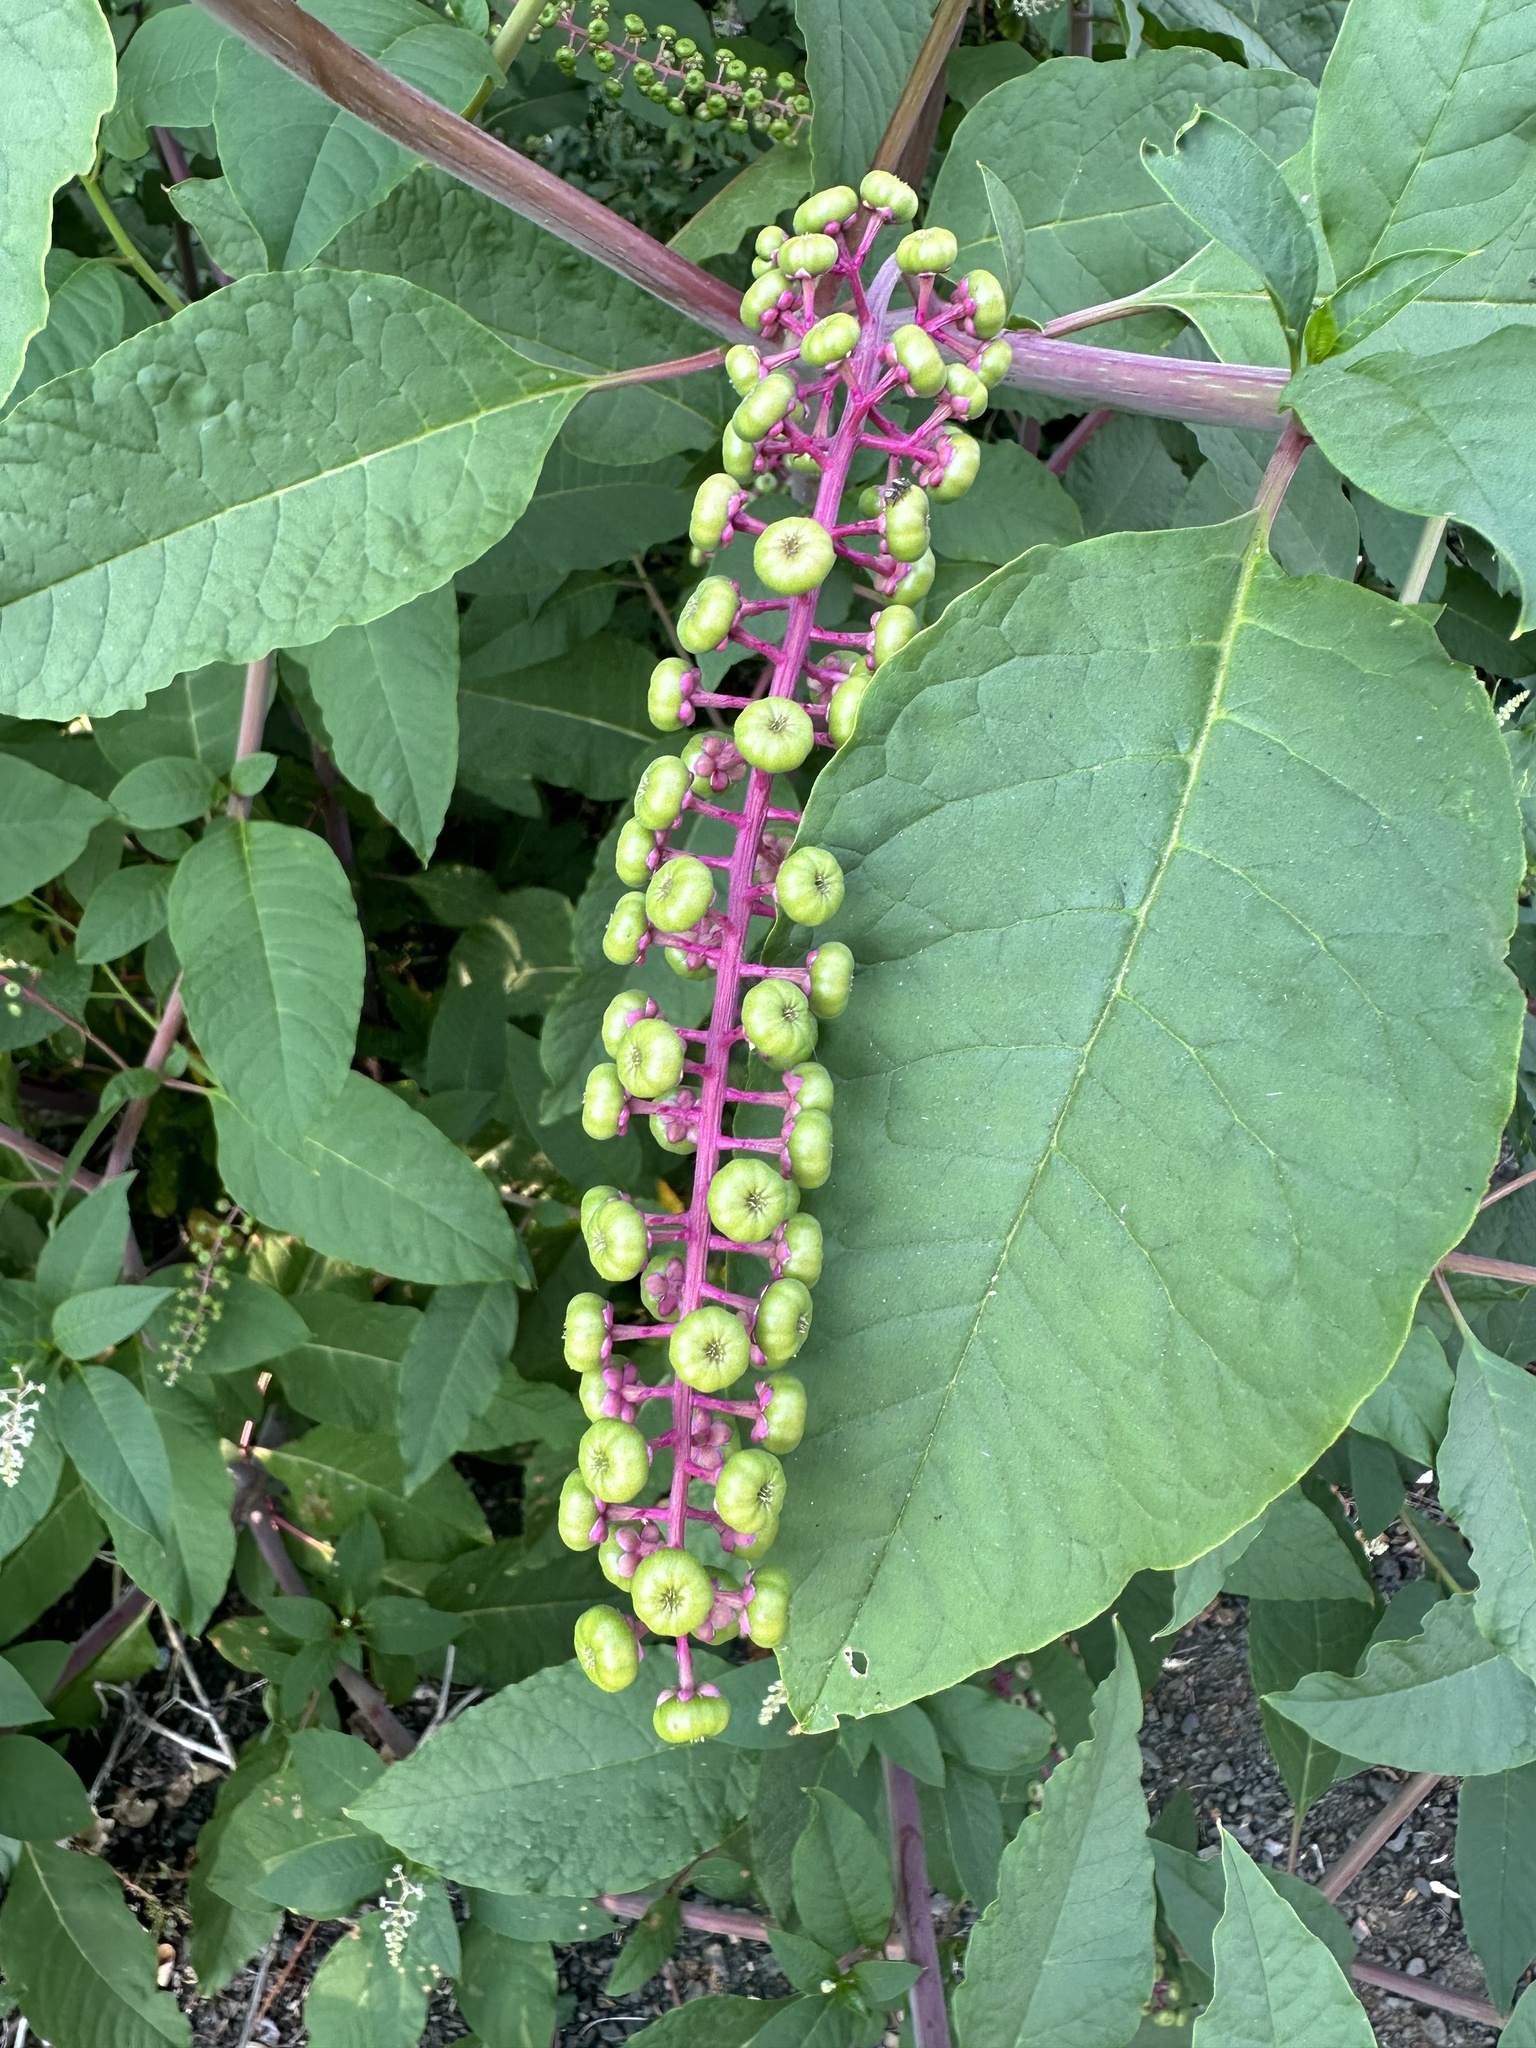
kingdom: Plantae
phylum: Tracheophyta
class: Magnoliopsida
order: Caryophyllales
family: Phytolaccaceae
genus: Phytolacca
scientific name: Phytolacca americana
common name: American pokeweed
